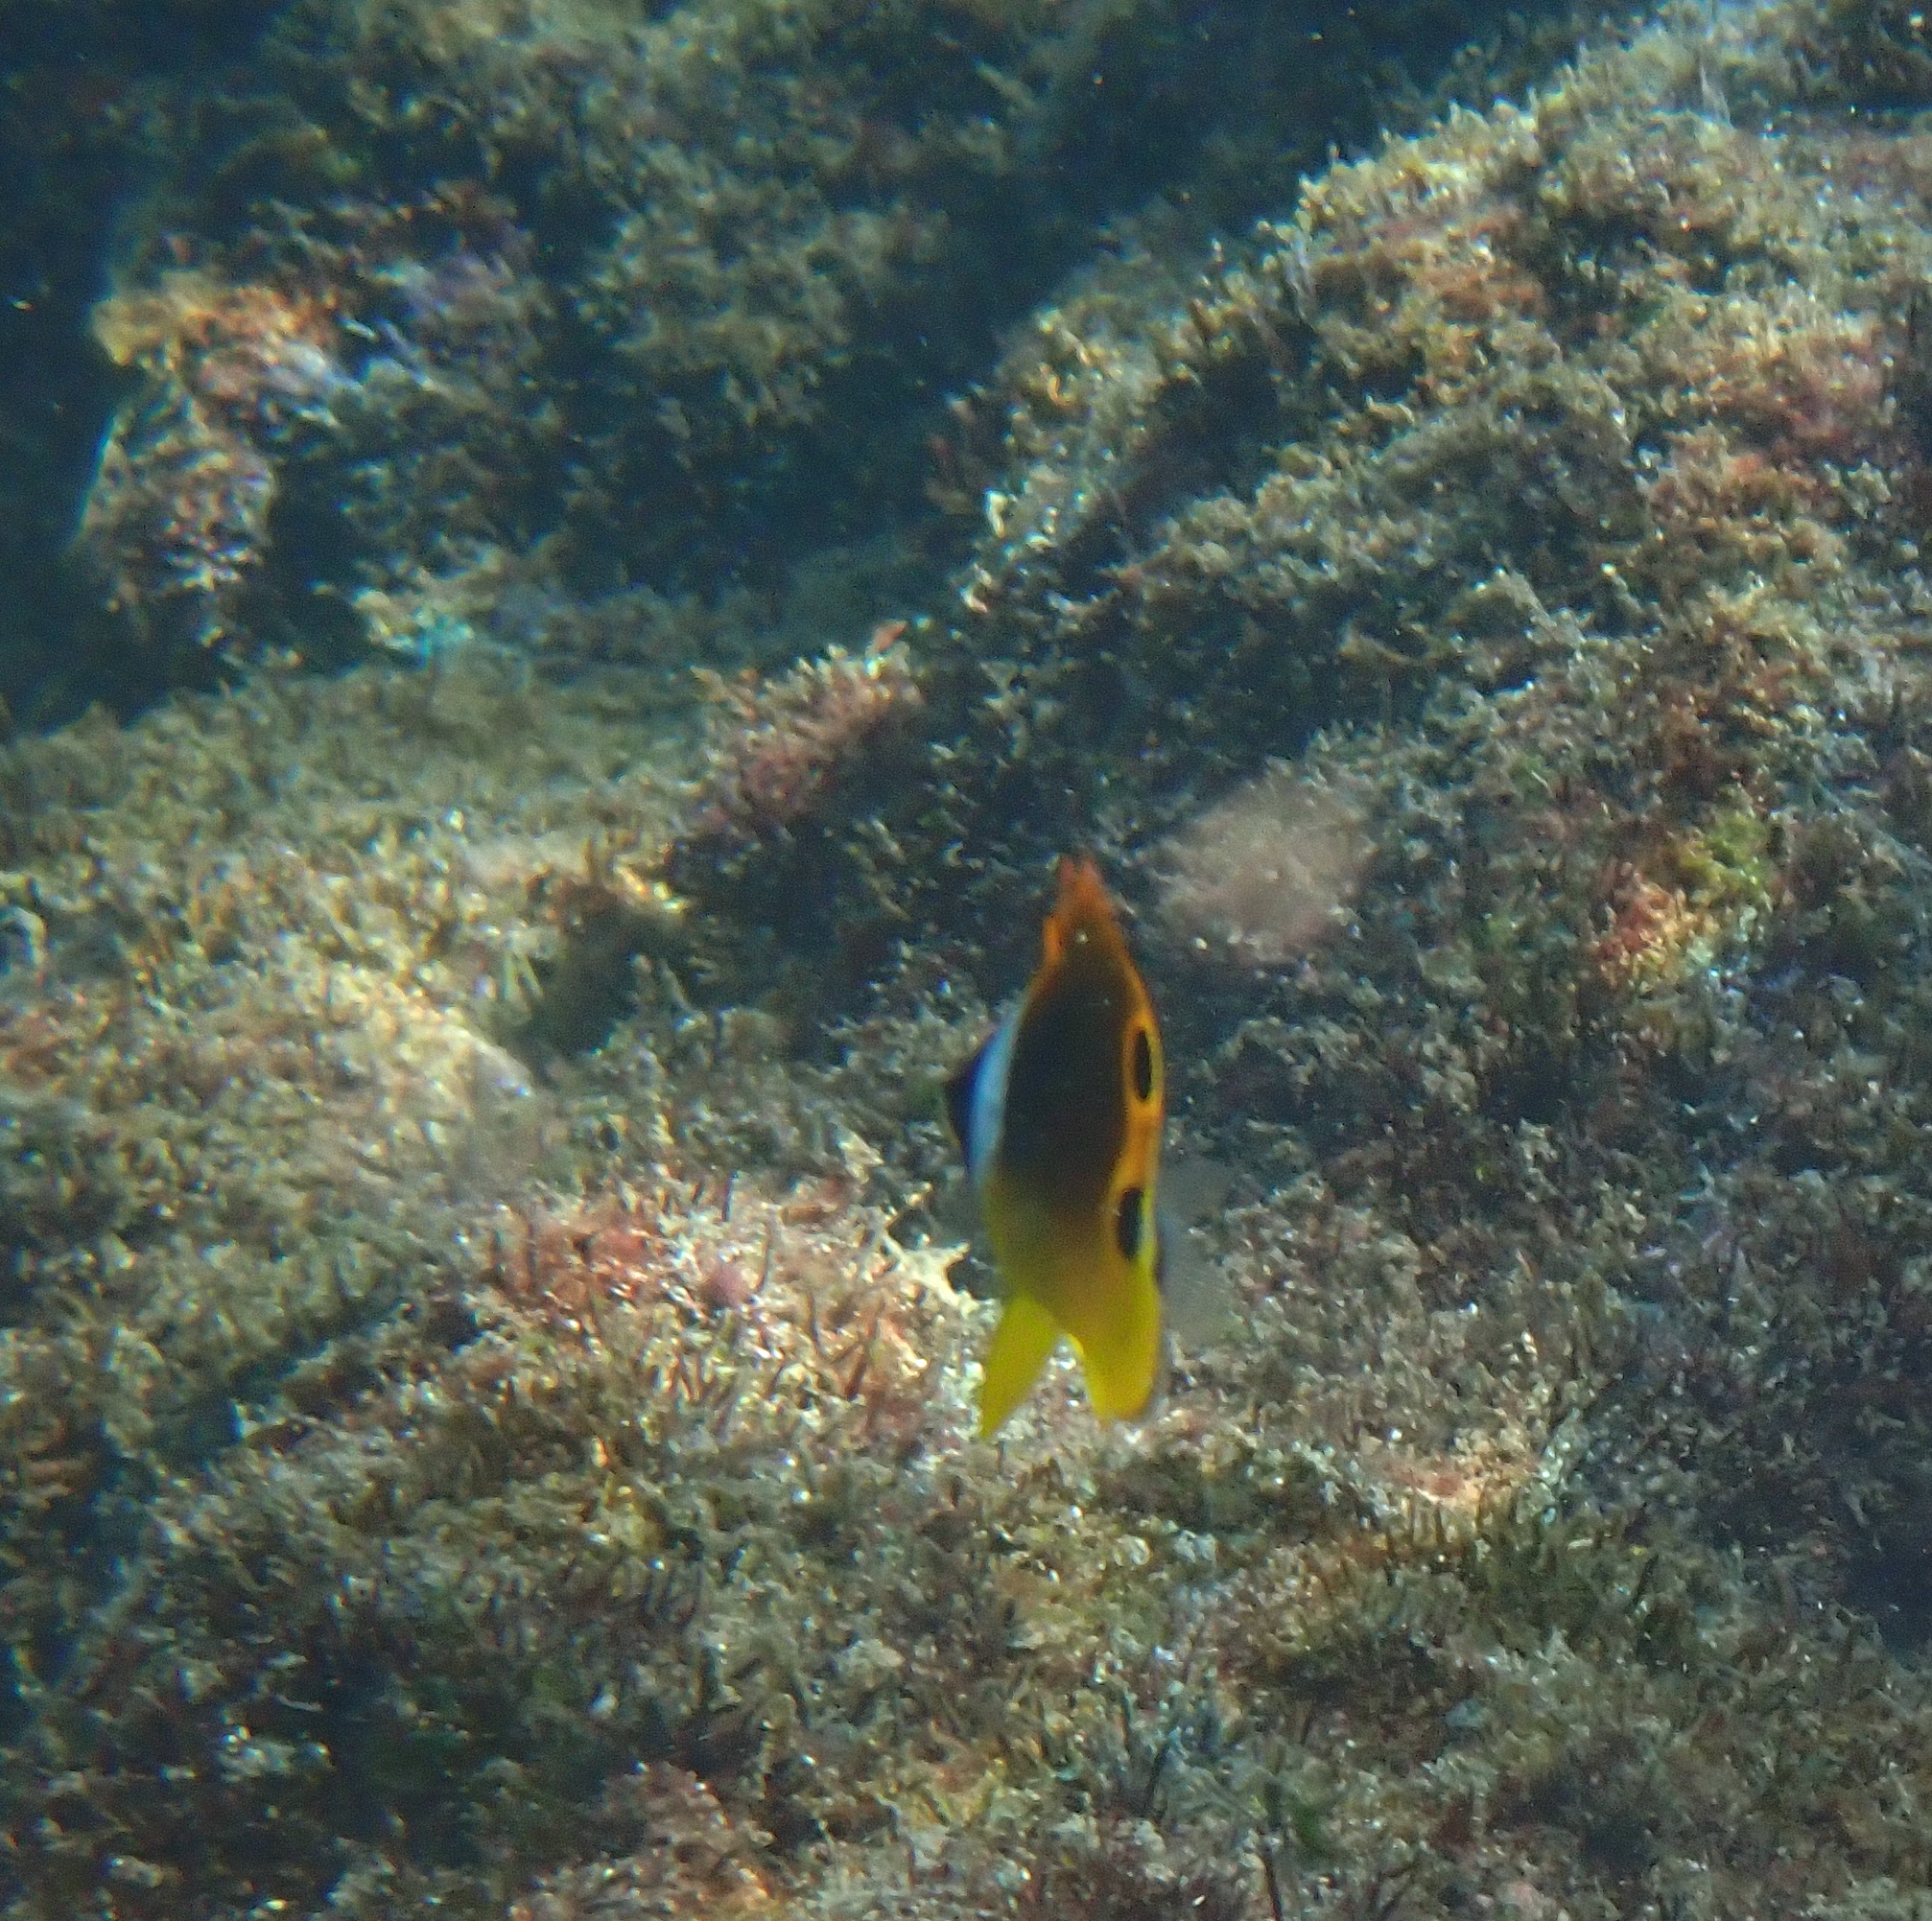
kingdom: Animalia
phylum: Chordata
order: Perciformes
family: Chaetodontidae
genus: Chaetodon
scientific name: Chaetodon lunula
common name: Raccoon butterflyfish
